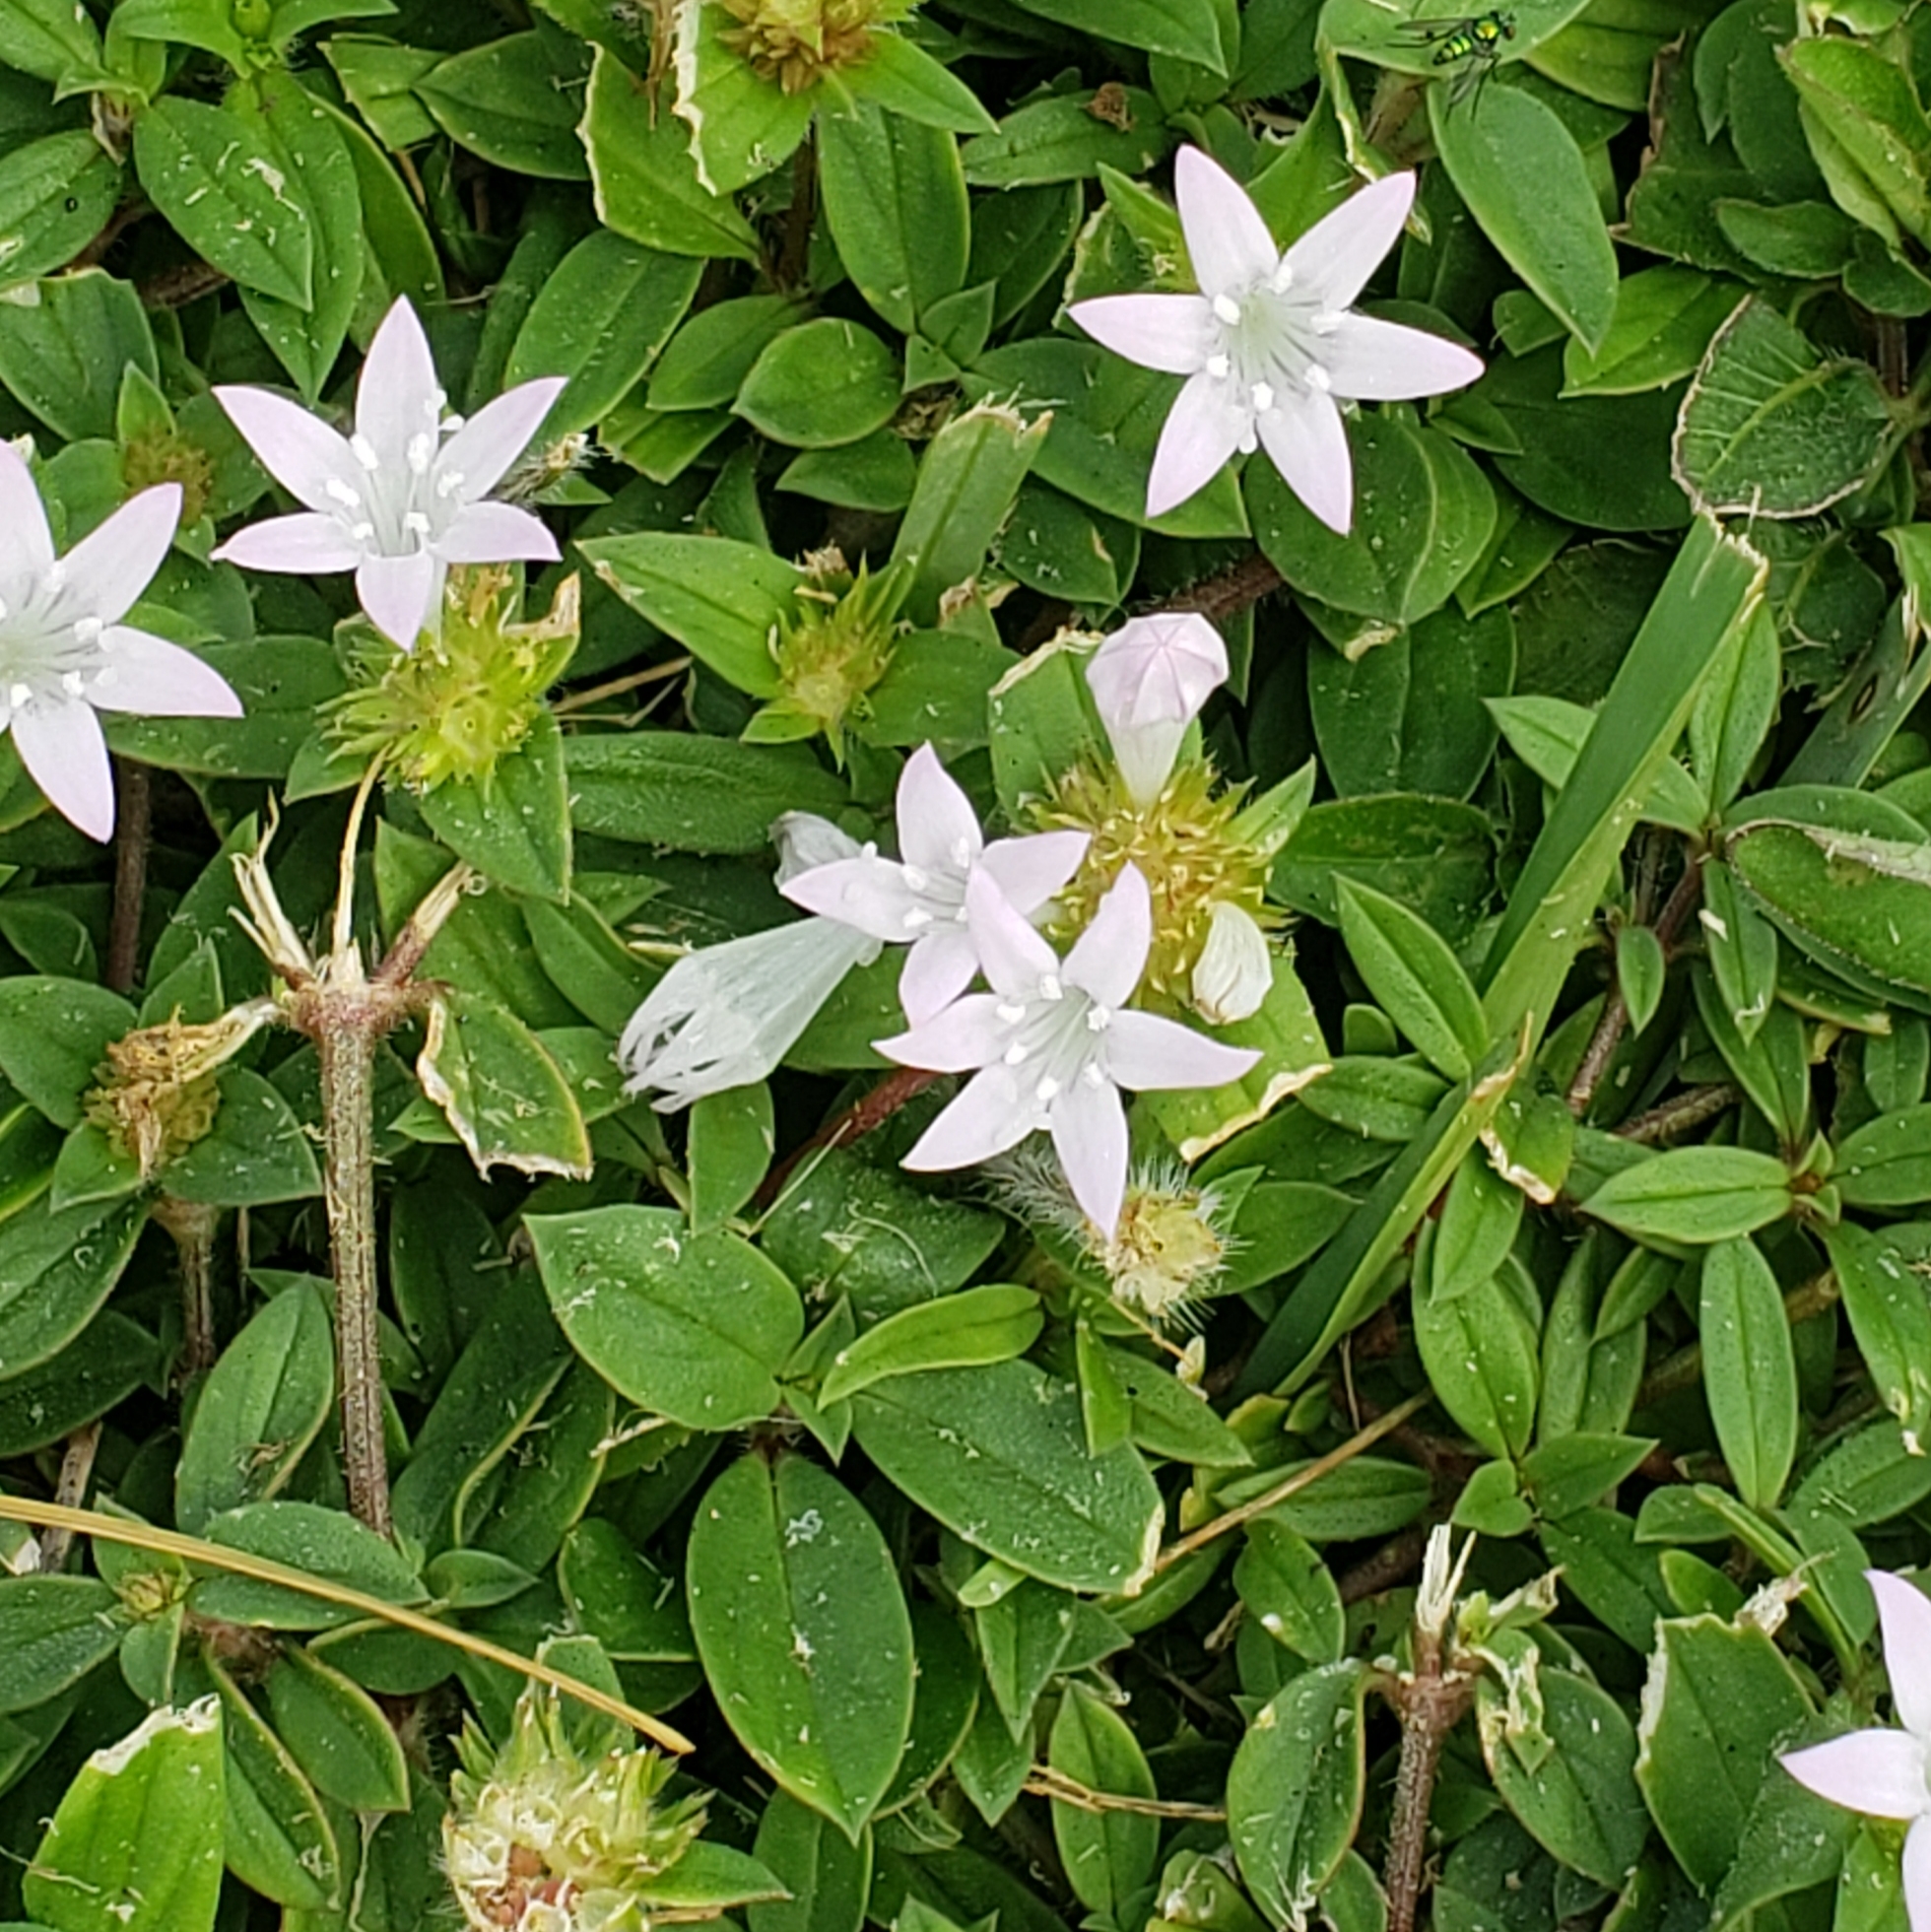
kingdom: Plantae
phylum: Tracheophyta
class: Magnoliopsida
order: Gentianales
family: Rubiaceae
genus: Richardia
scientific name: Richardia grandiflora
